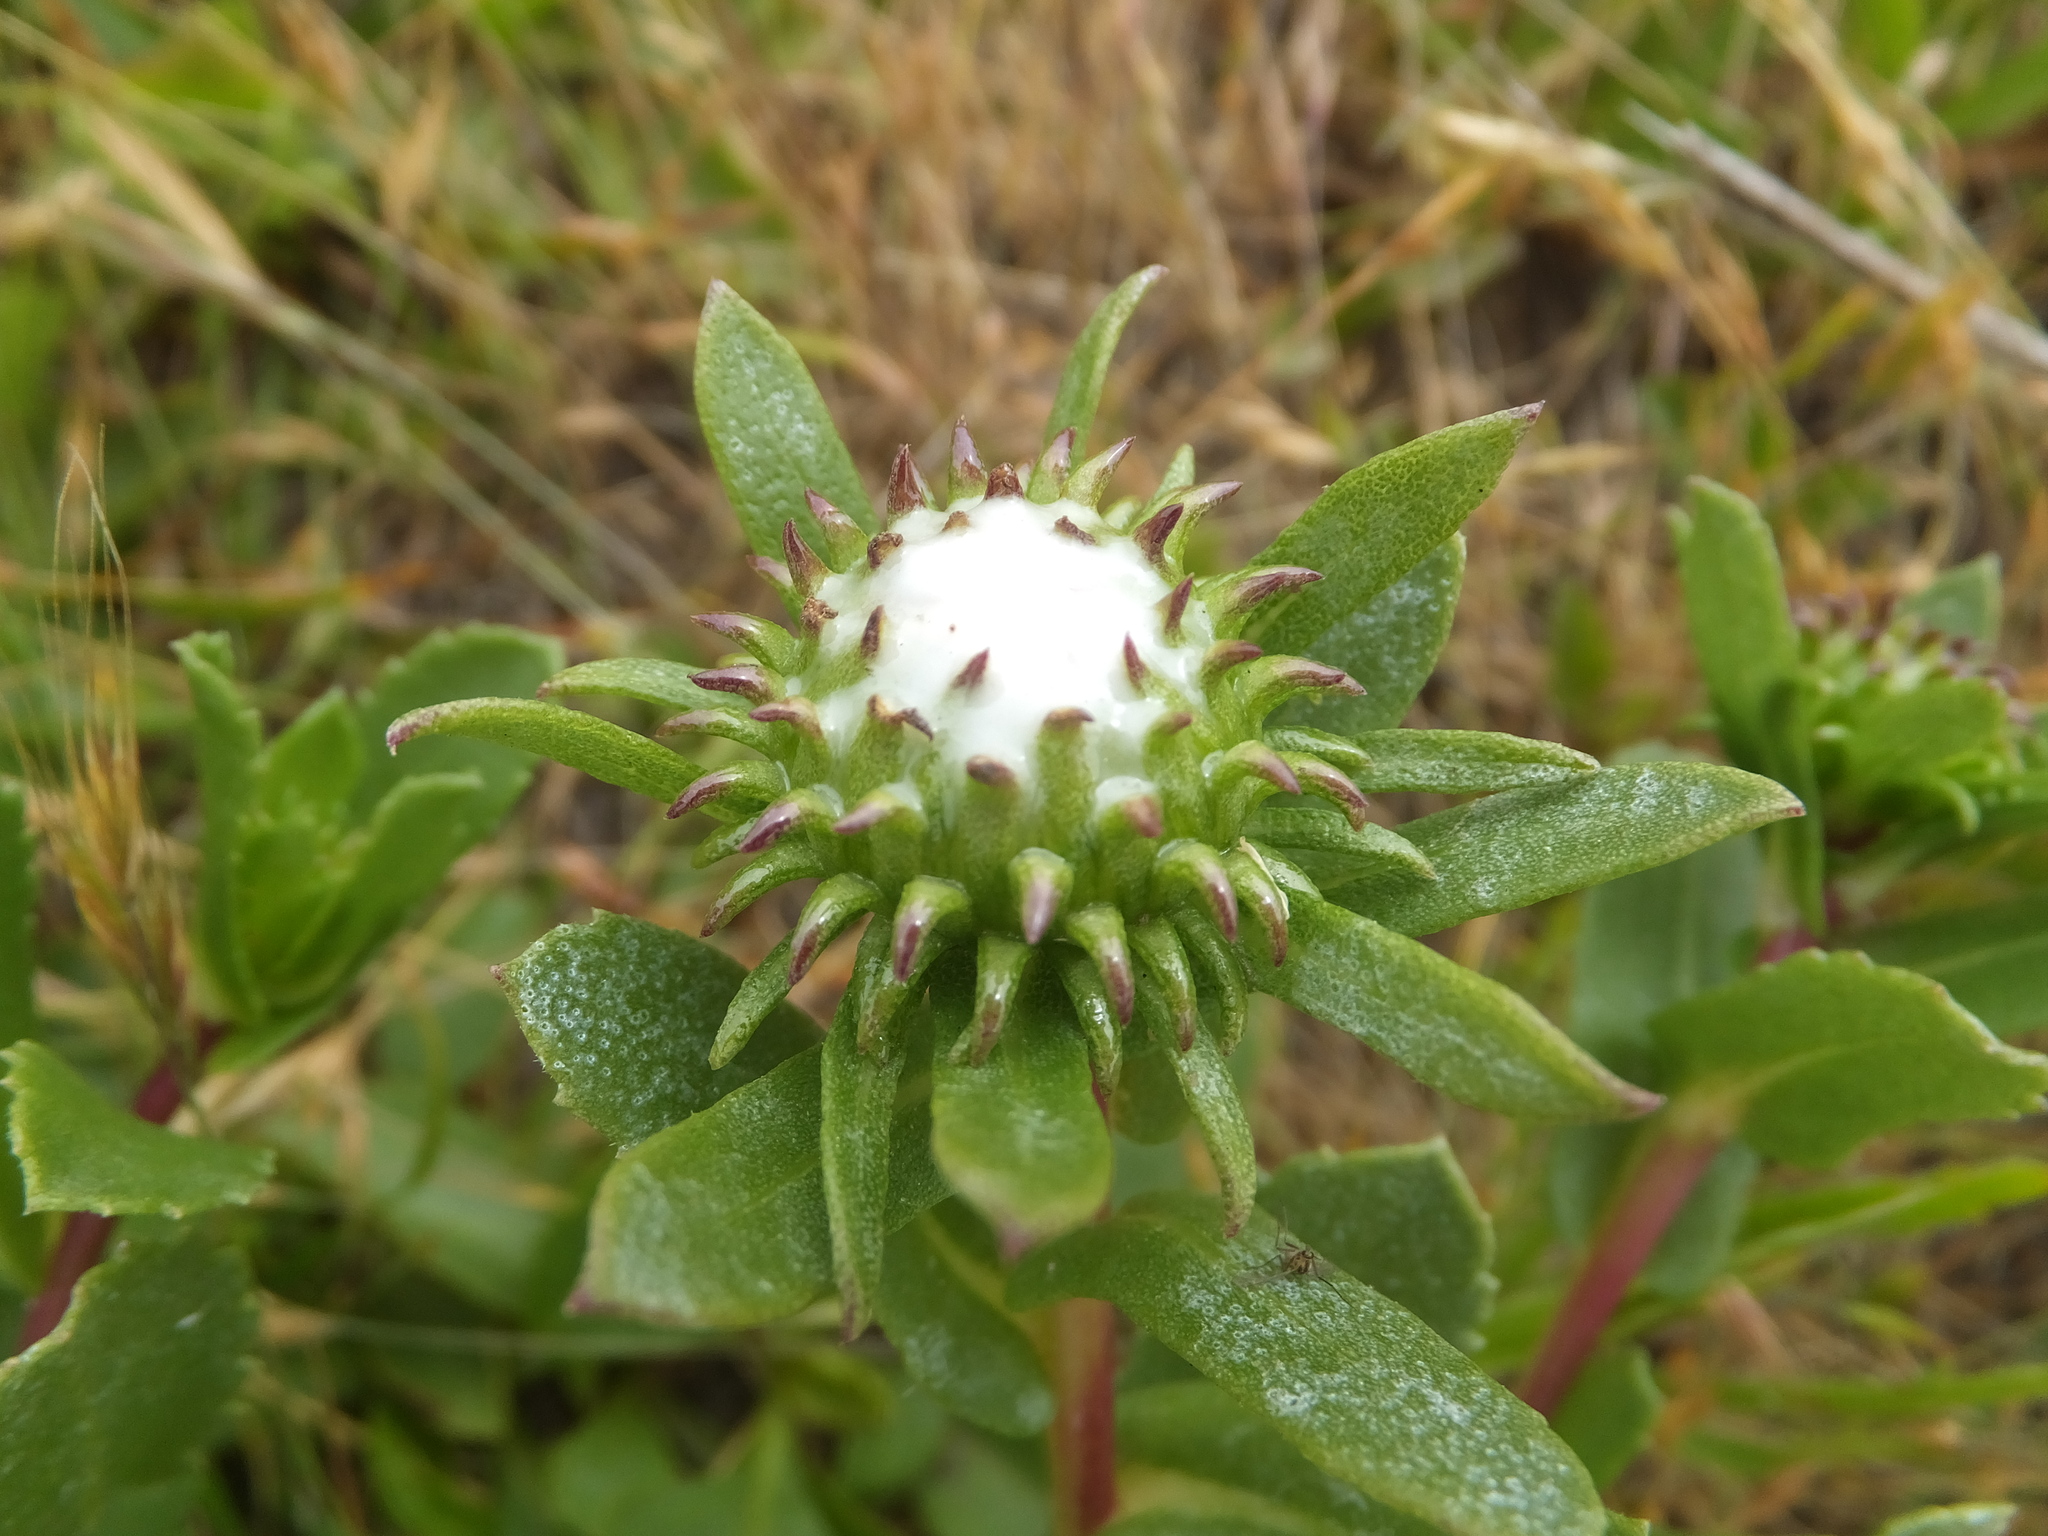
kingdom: Plantae
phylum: Tracheophyta
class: Magnoliopsida
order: Asterales
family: Asteraceae
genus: Grindelia
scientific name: Grindelia hirsutula
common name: Hairy gumweed
